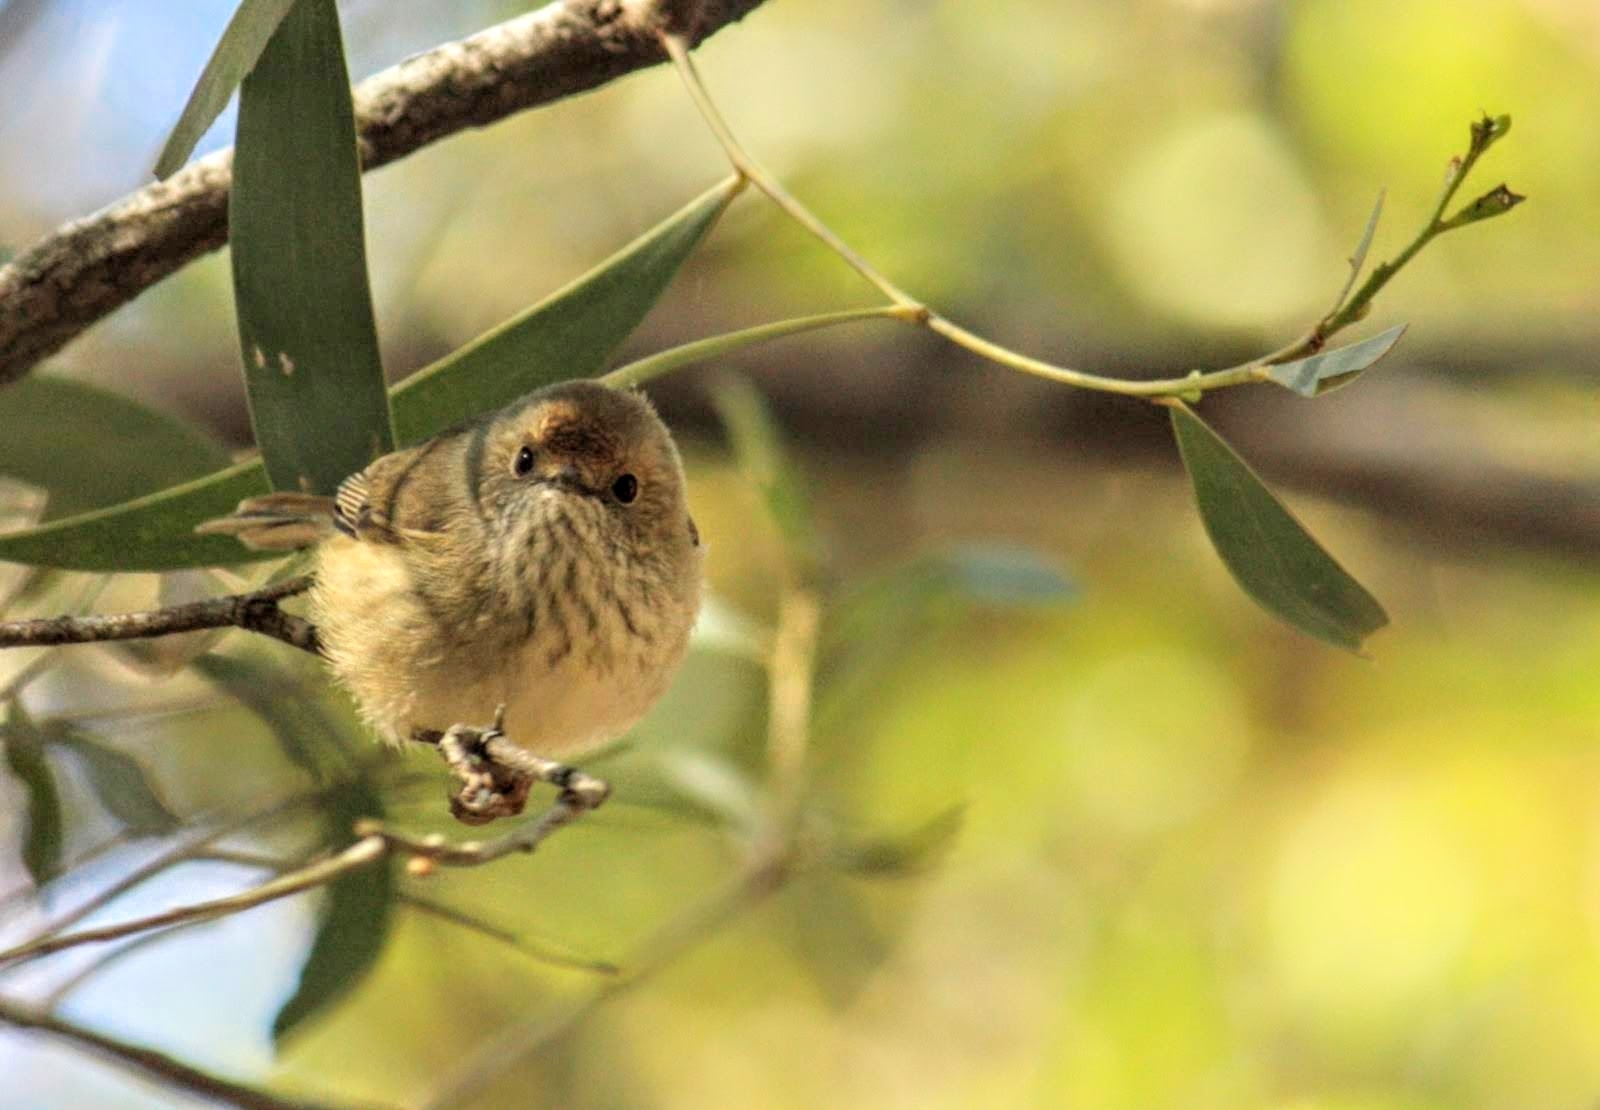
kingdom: Animalia
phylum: Chordata
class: Aves
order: Passeriformes
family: Acanthizidae
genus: Acanthiza
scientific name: Acanthiza pusilla
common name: Brown thornbill
